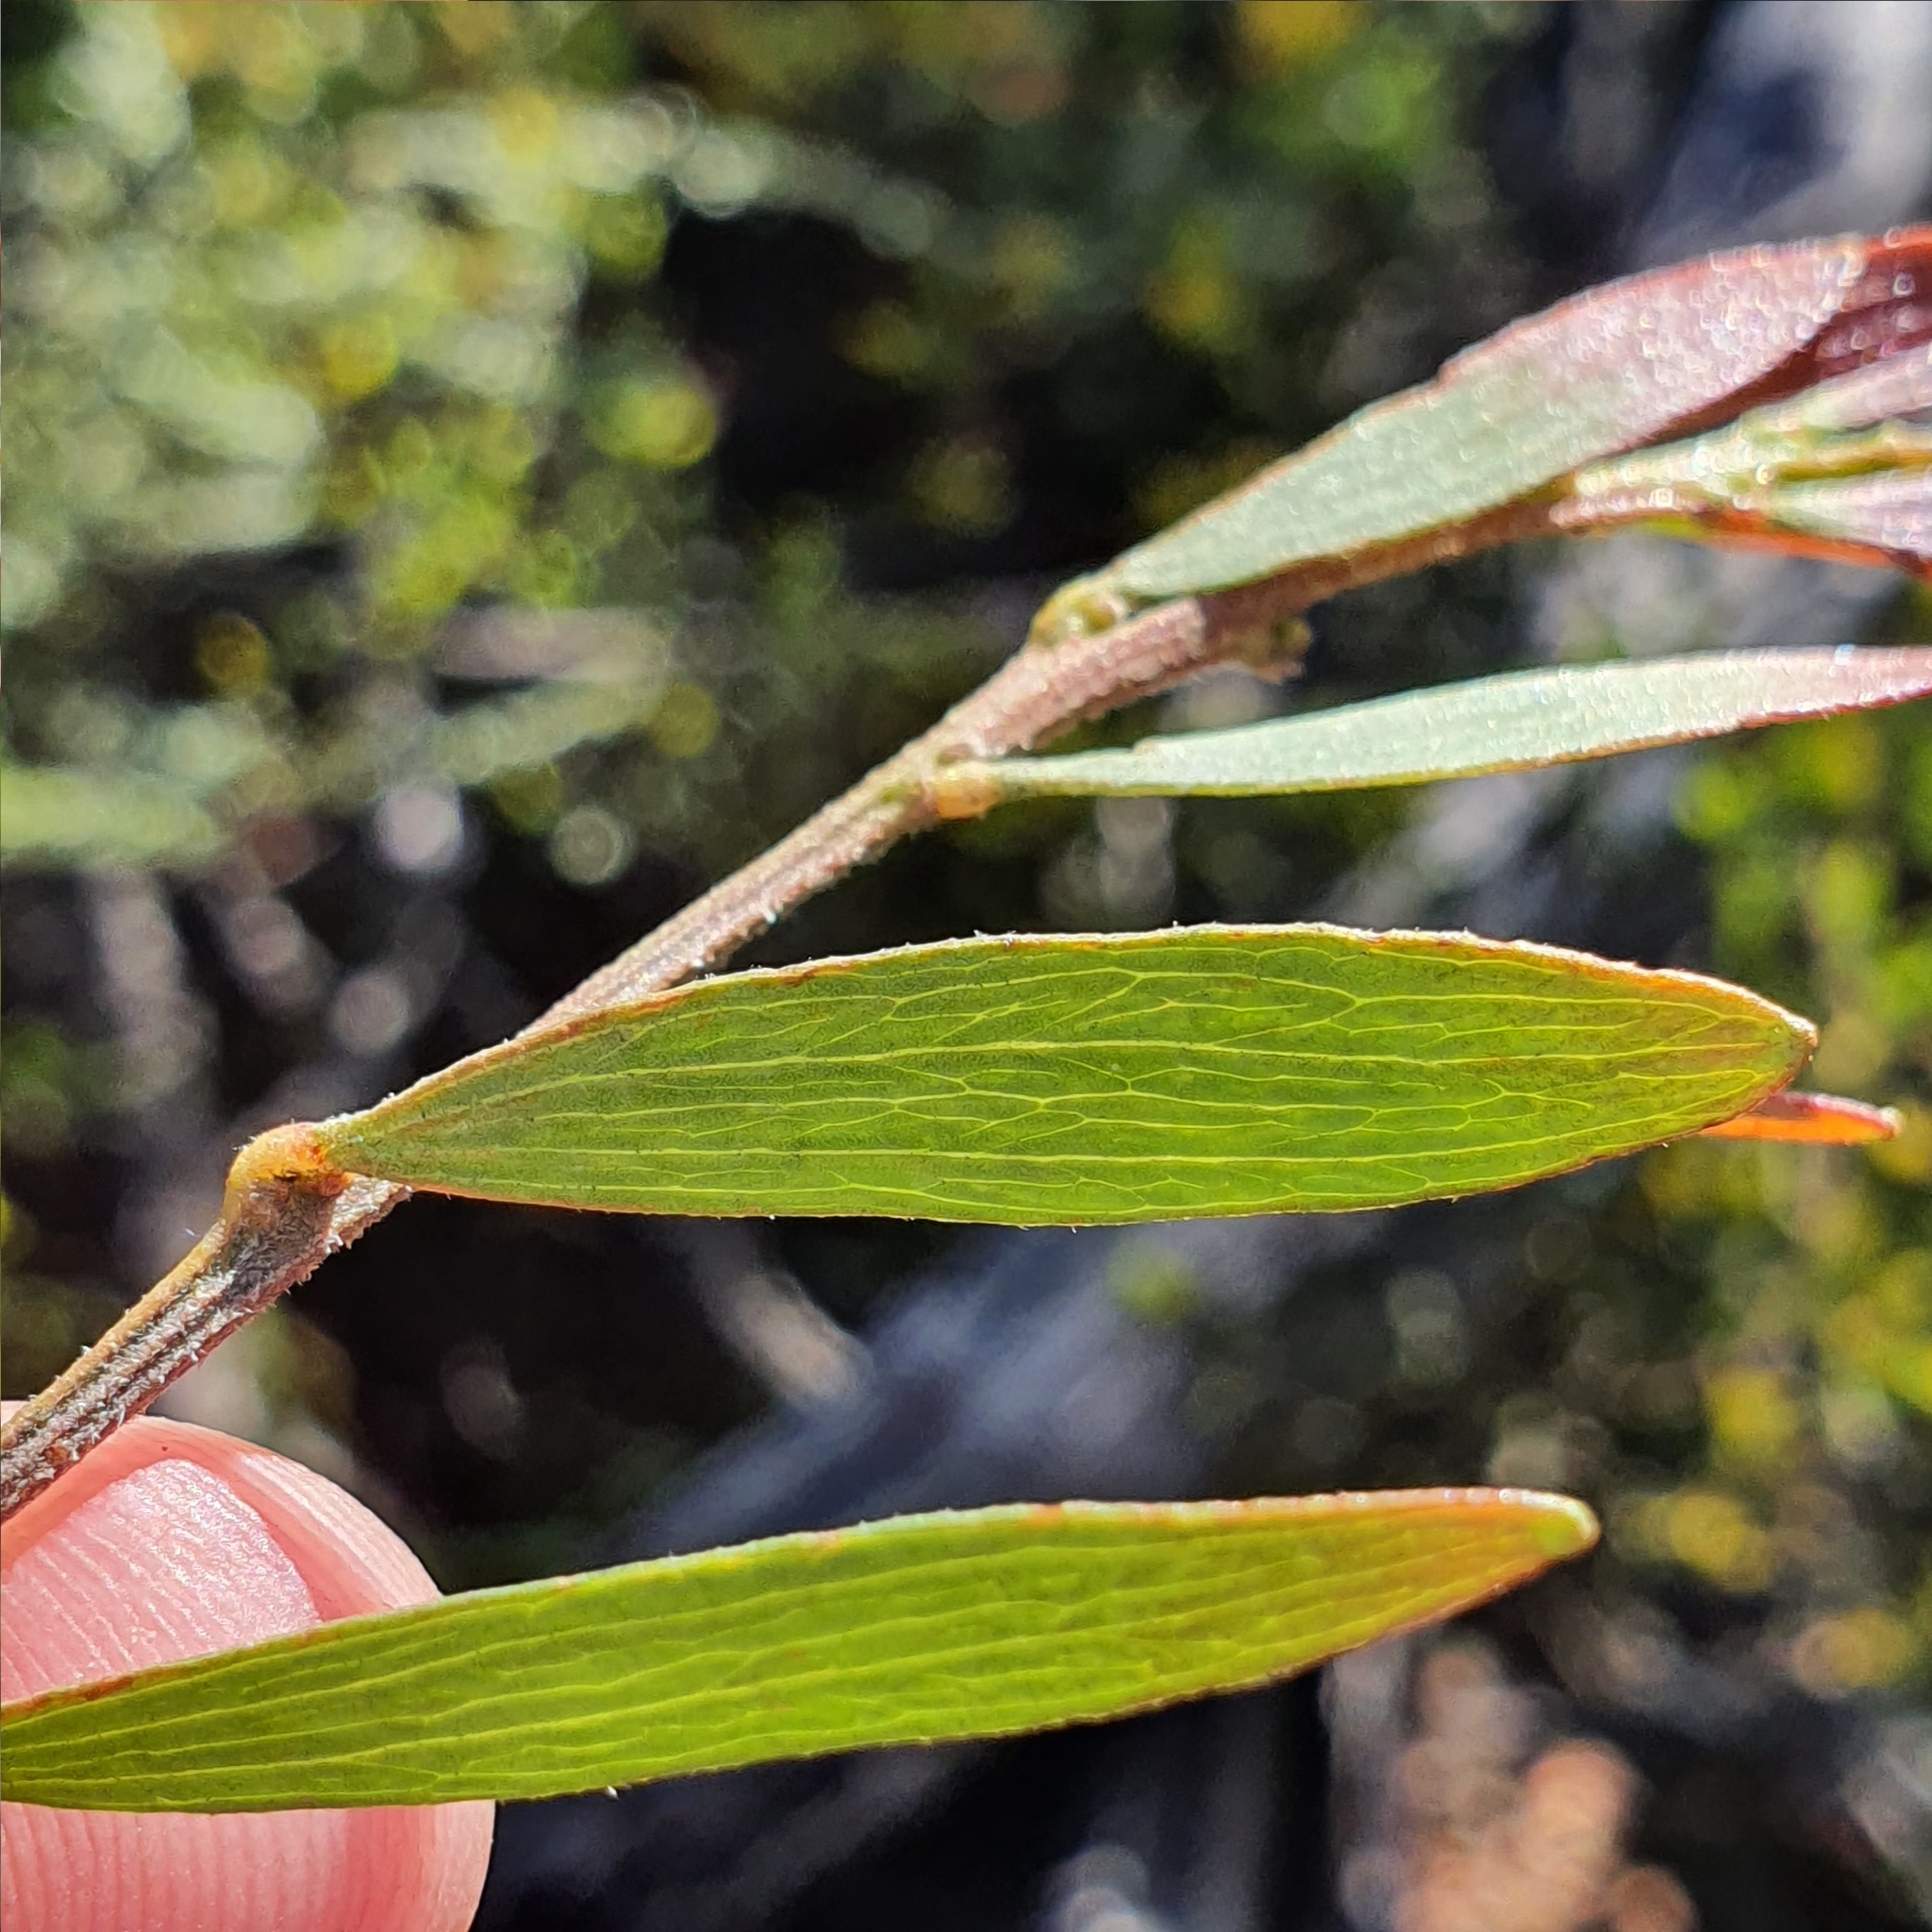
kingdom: Plantae
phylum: Tracheophyta
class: Magnoliopsida
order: Fabales
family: Fabaceae
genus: Acacia
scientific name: Acacia ixiophylla
